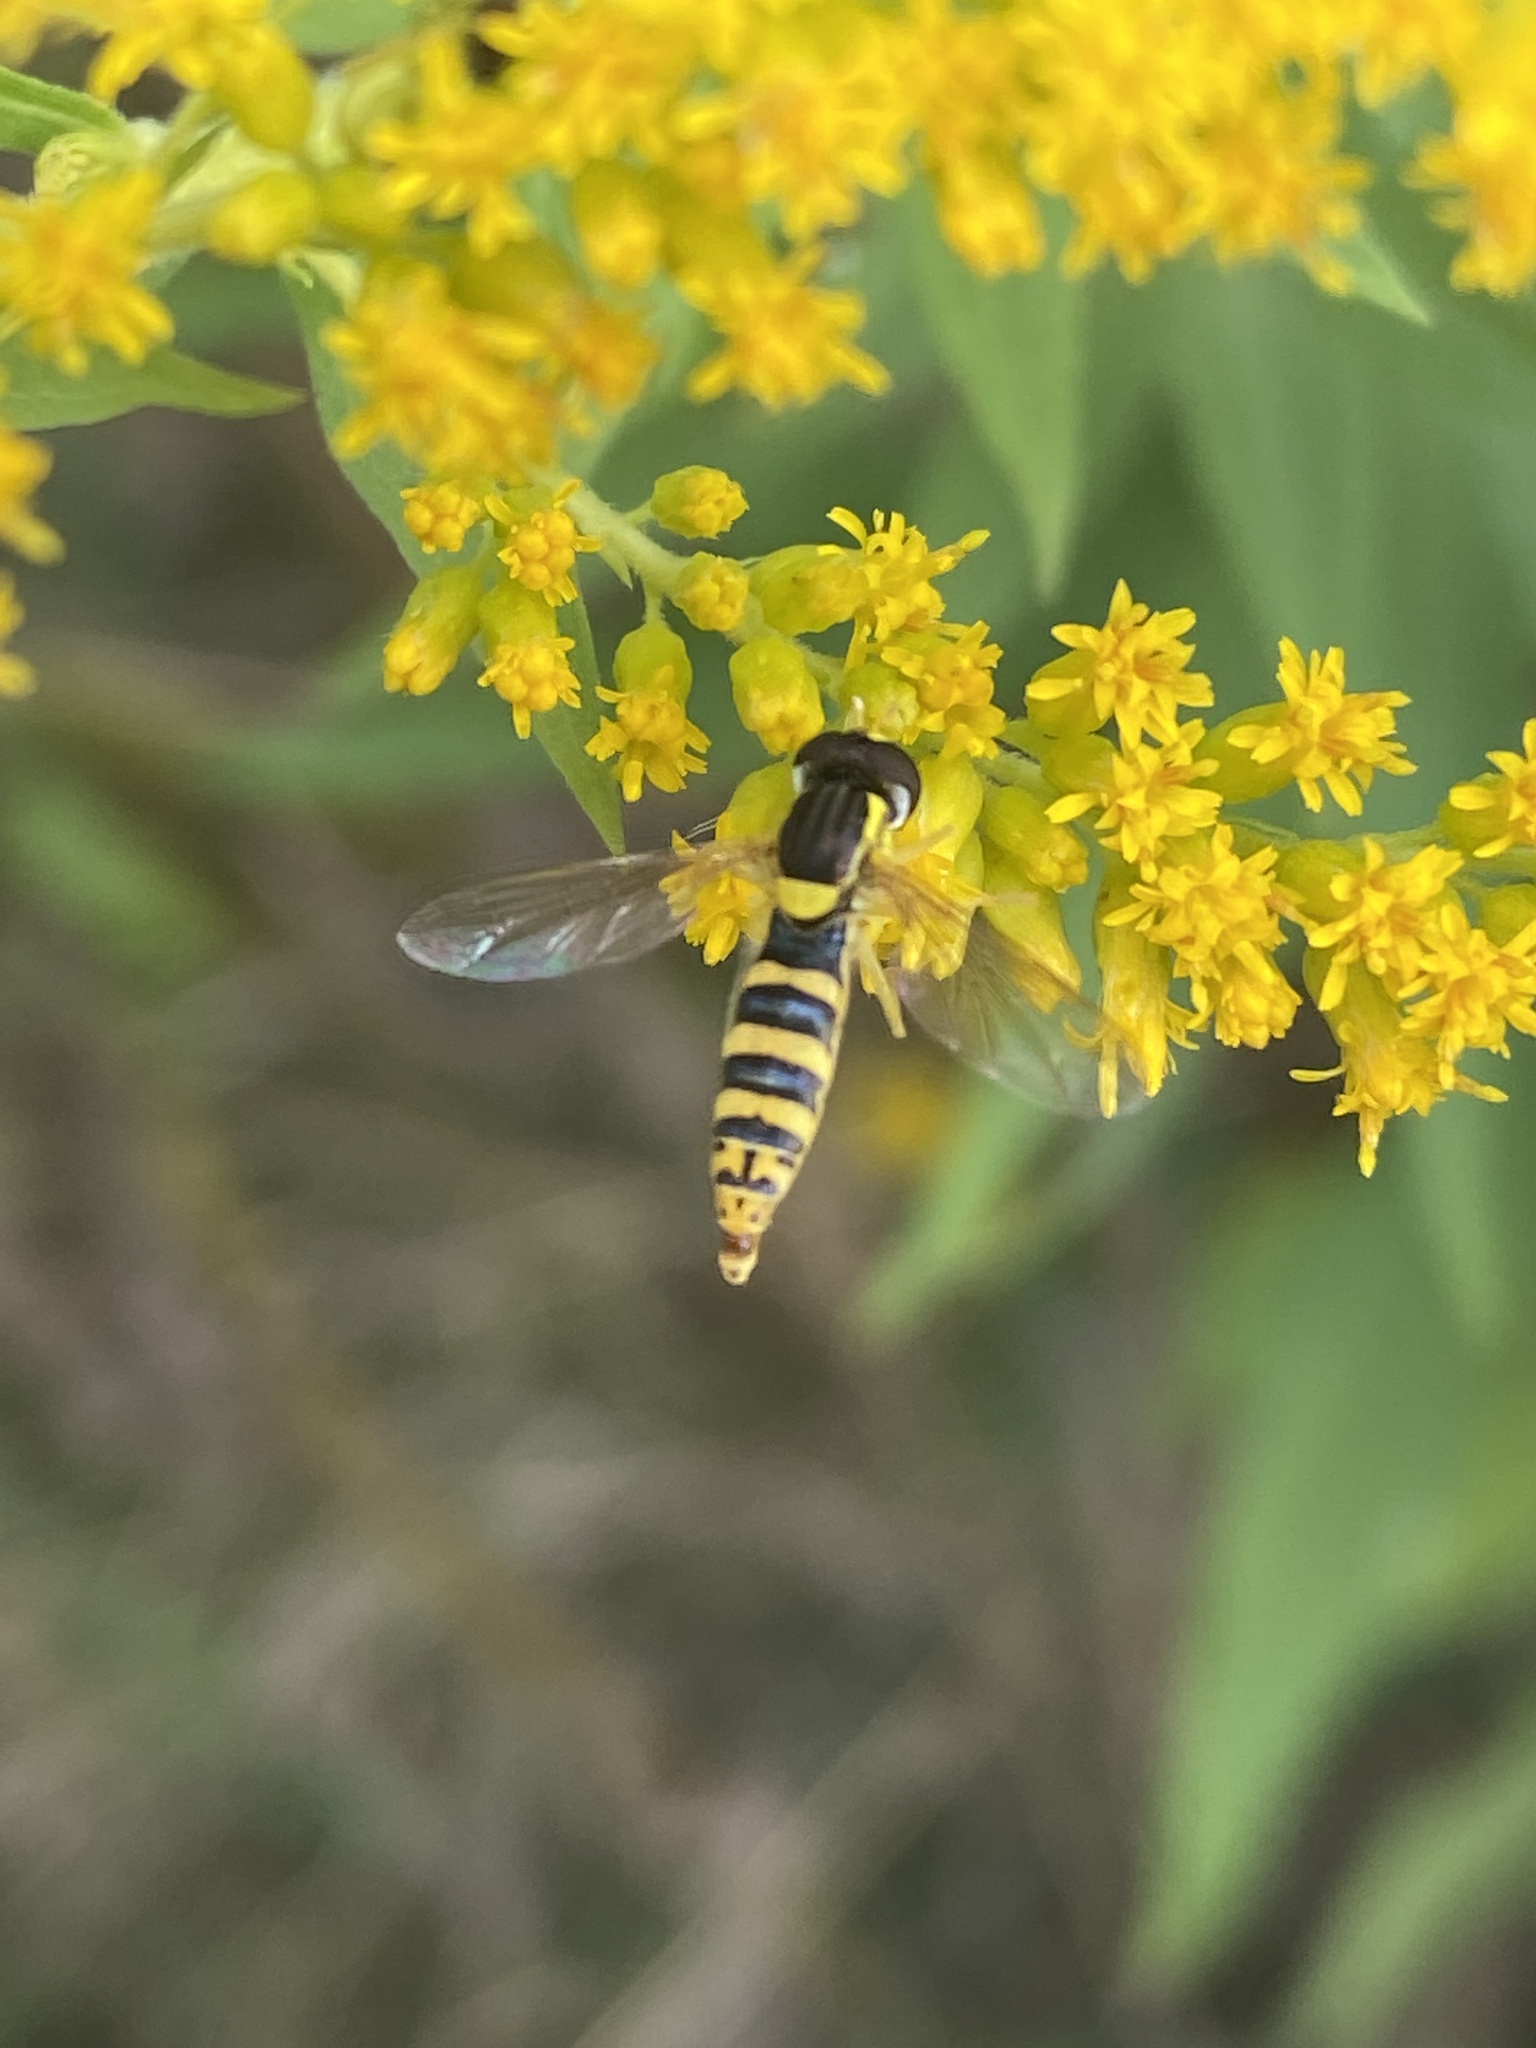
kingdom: Animalia
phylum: Arthropoda
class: Insecta
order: Diptera
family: Syrphidae
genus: Sphaerophoria
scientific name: Sphaerophoria scripta
